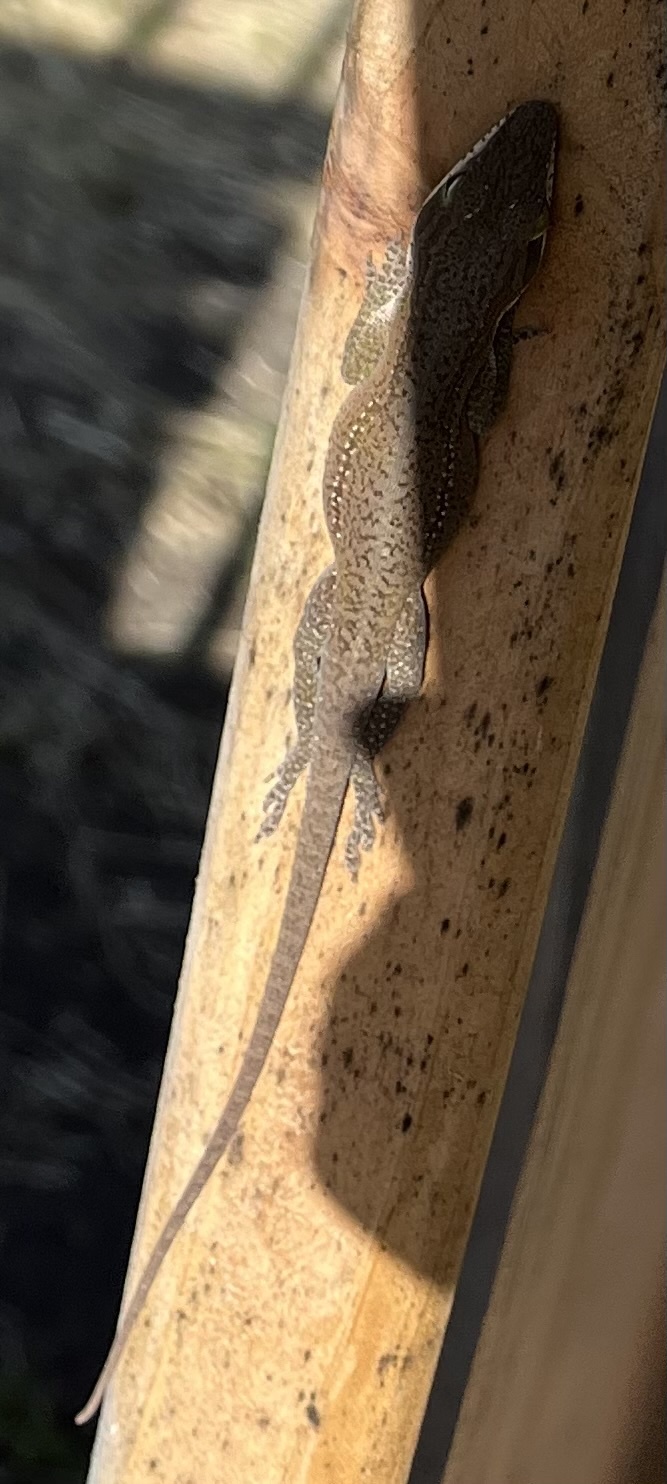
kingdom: Animalia
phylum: Chordata
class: Squamata
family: Dactyloidae
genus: Anolis
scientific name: Anolis carolinensis
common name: Green anole
